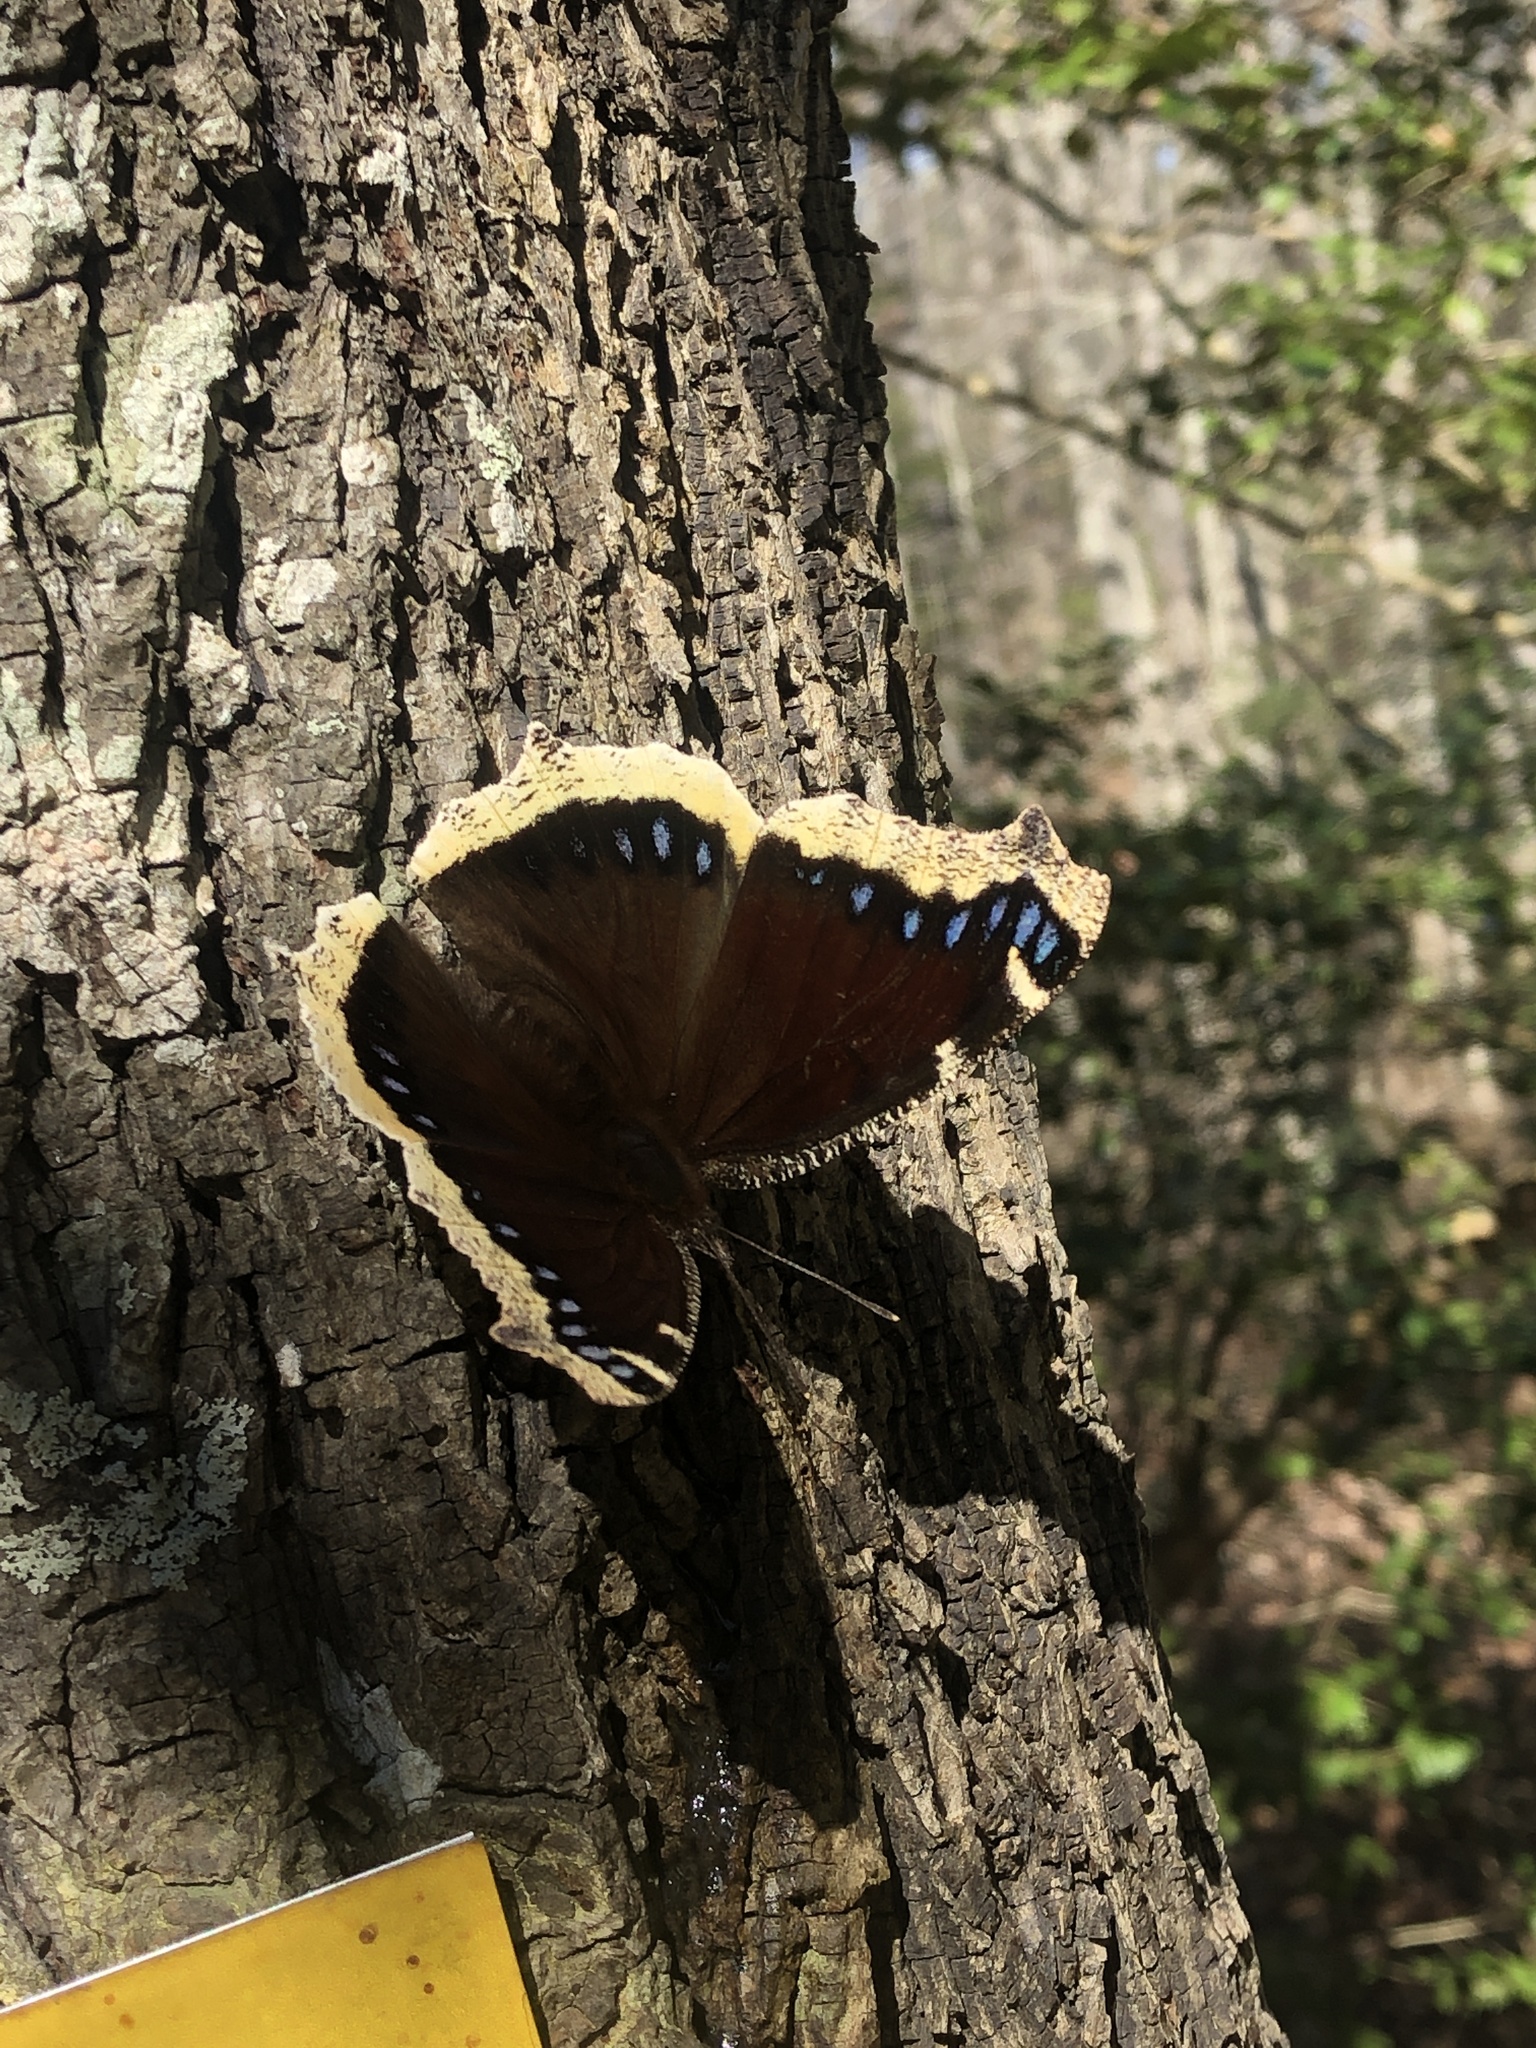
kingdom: Animalia
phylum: Arthropoda
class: Insecta
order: Lepidoptera
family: Nymphalidae
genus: Nymphalis
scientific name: Nymphalis antiopa
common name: Camberwell beauty
